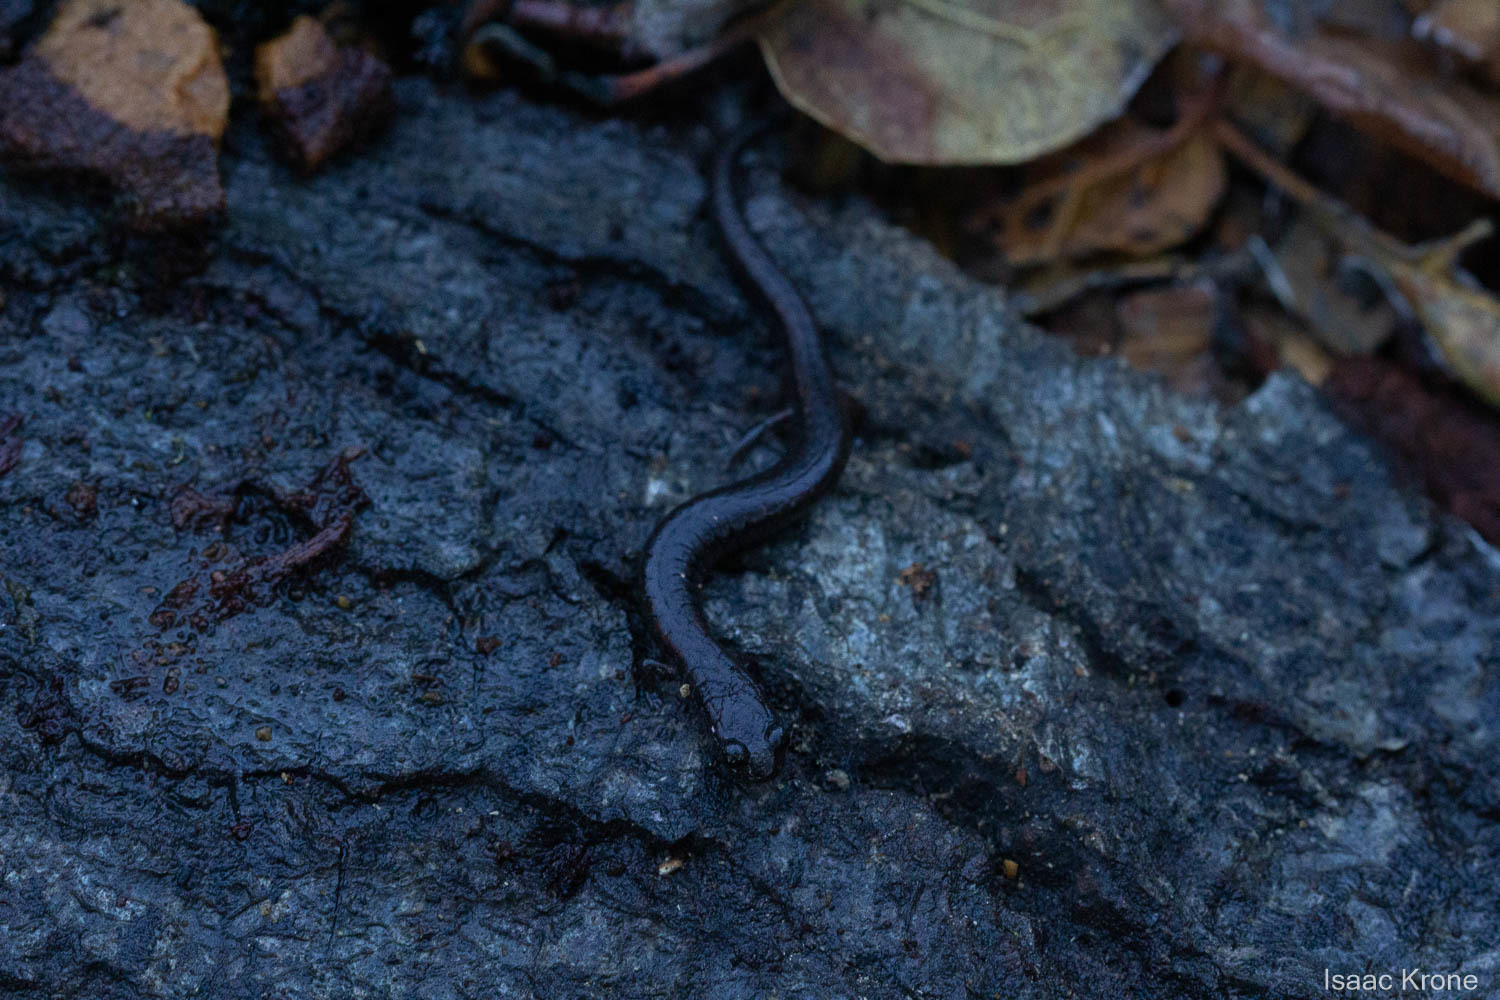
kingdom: Animalia
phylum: Chordata
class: Amphibia
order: Caudata
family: Plethodontidae
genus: Batrachoseps
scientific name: Batrachoseps attenuatus
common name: California slender salamander
